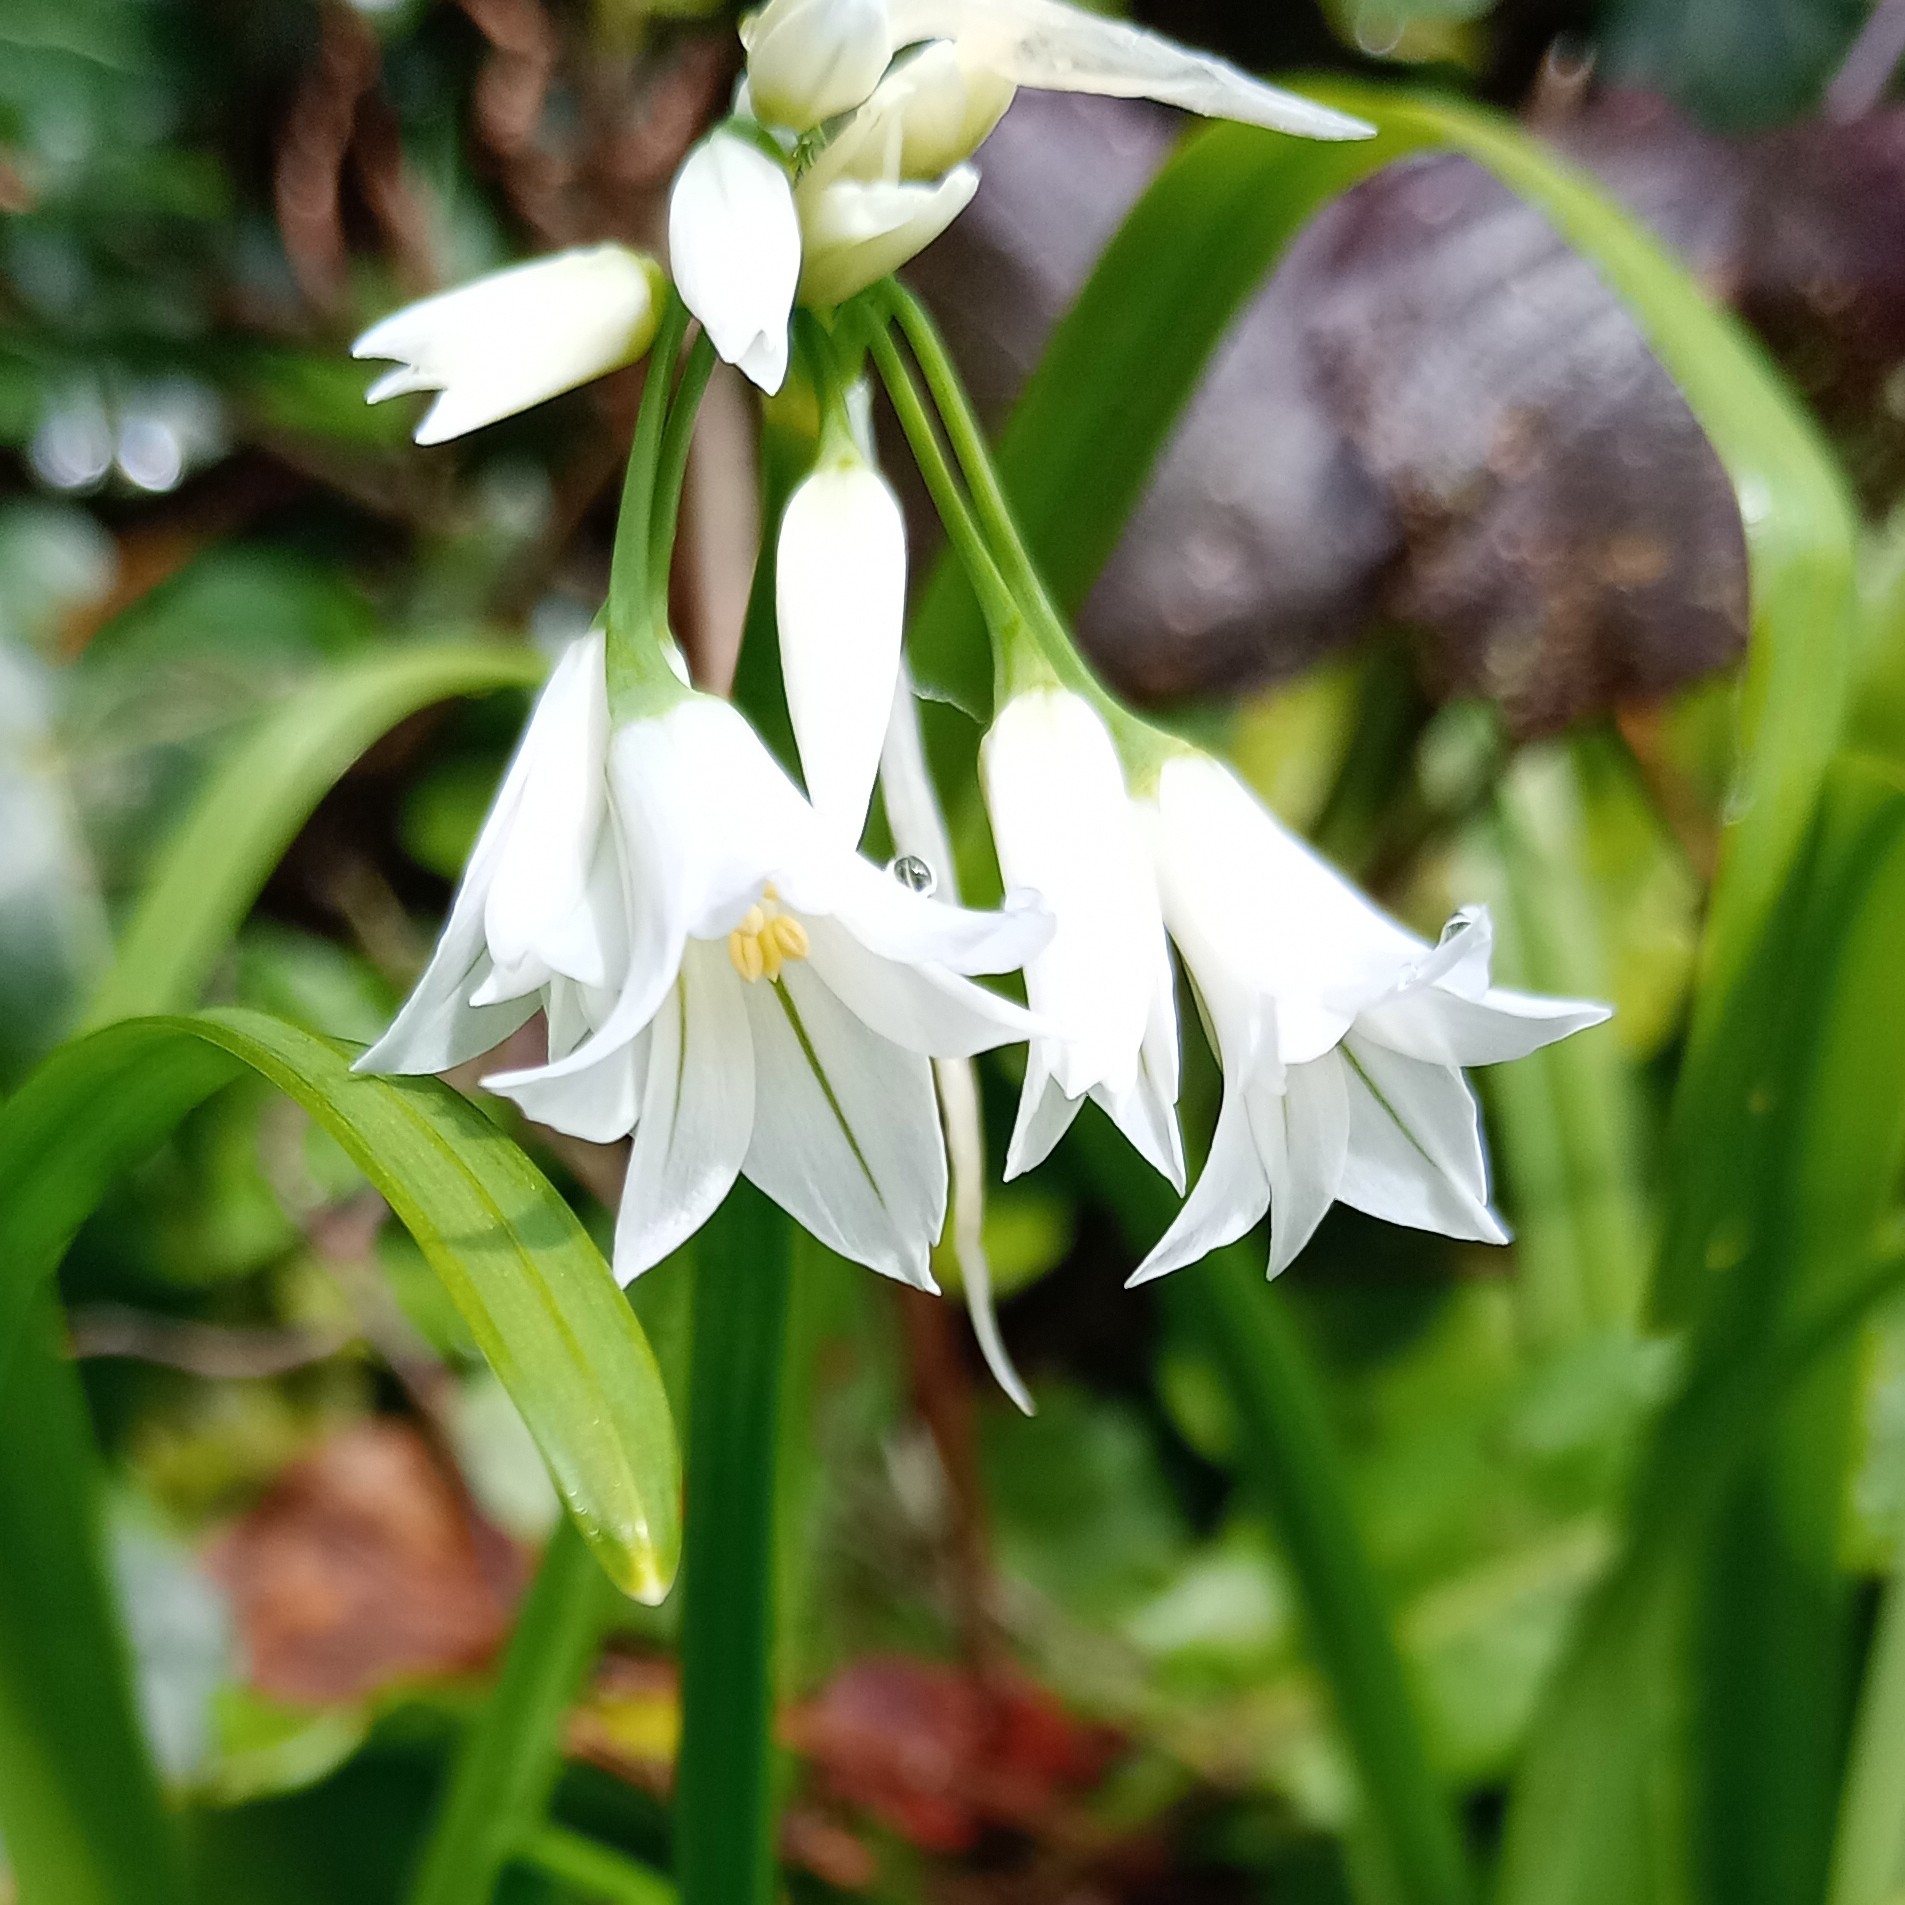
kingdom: Plantae
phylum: Tracheophyta
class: Liliopsida
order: Asparagales
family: Amaryllidaceae
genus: Allium
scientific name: Allium triquetrum
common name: Three-cornered garlic
